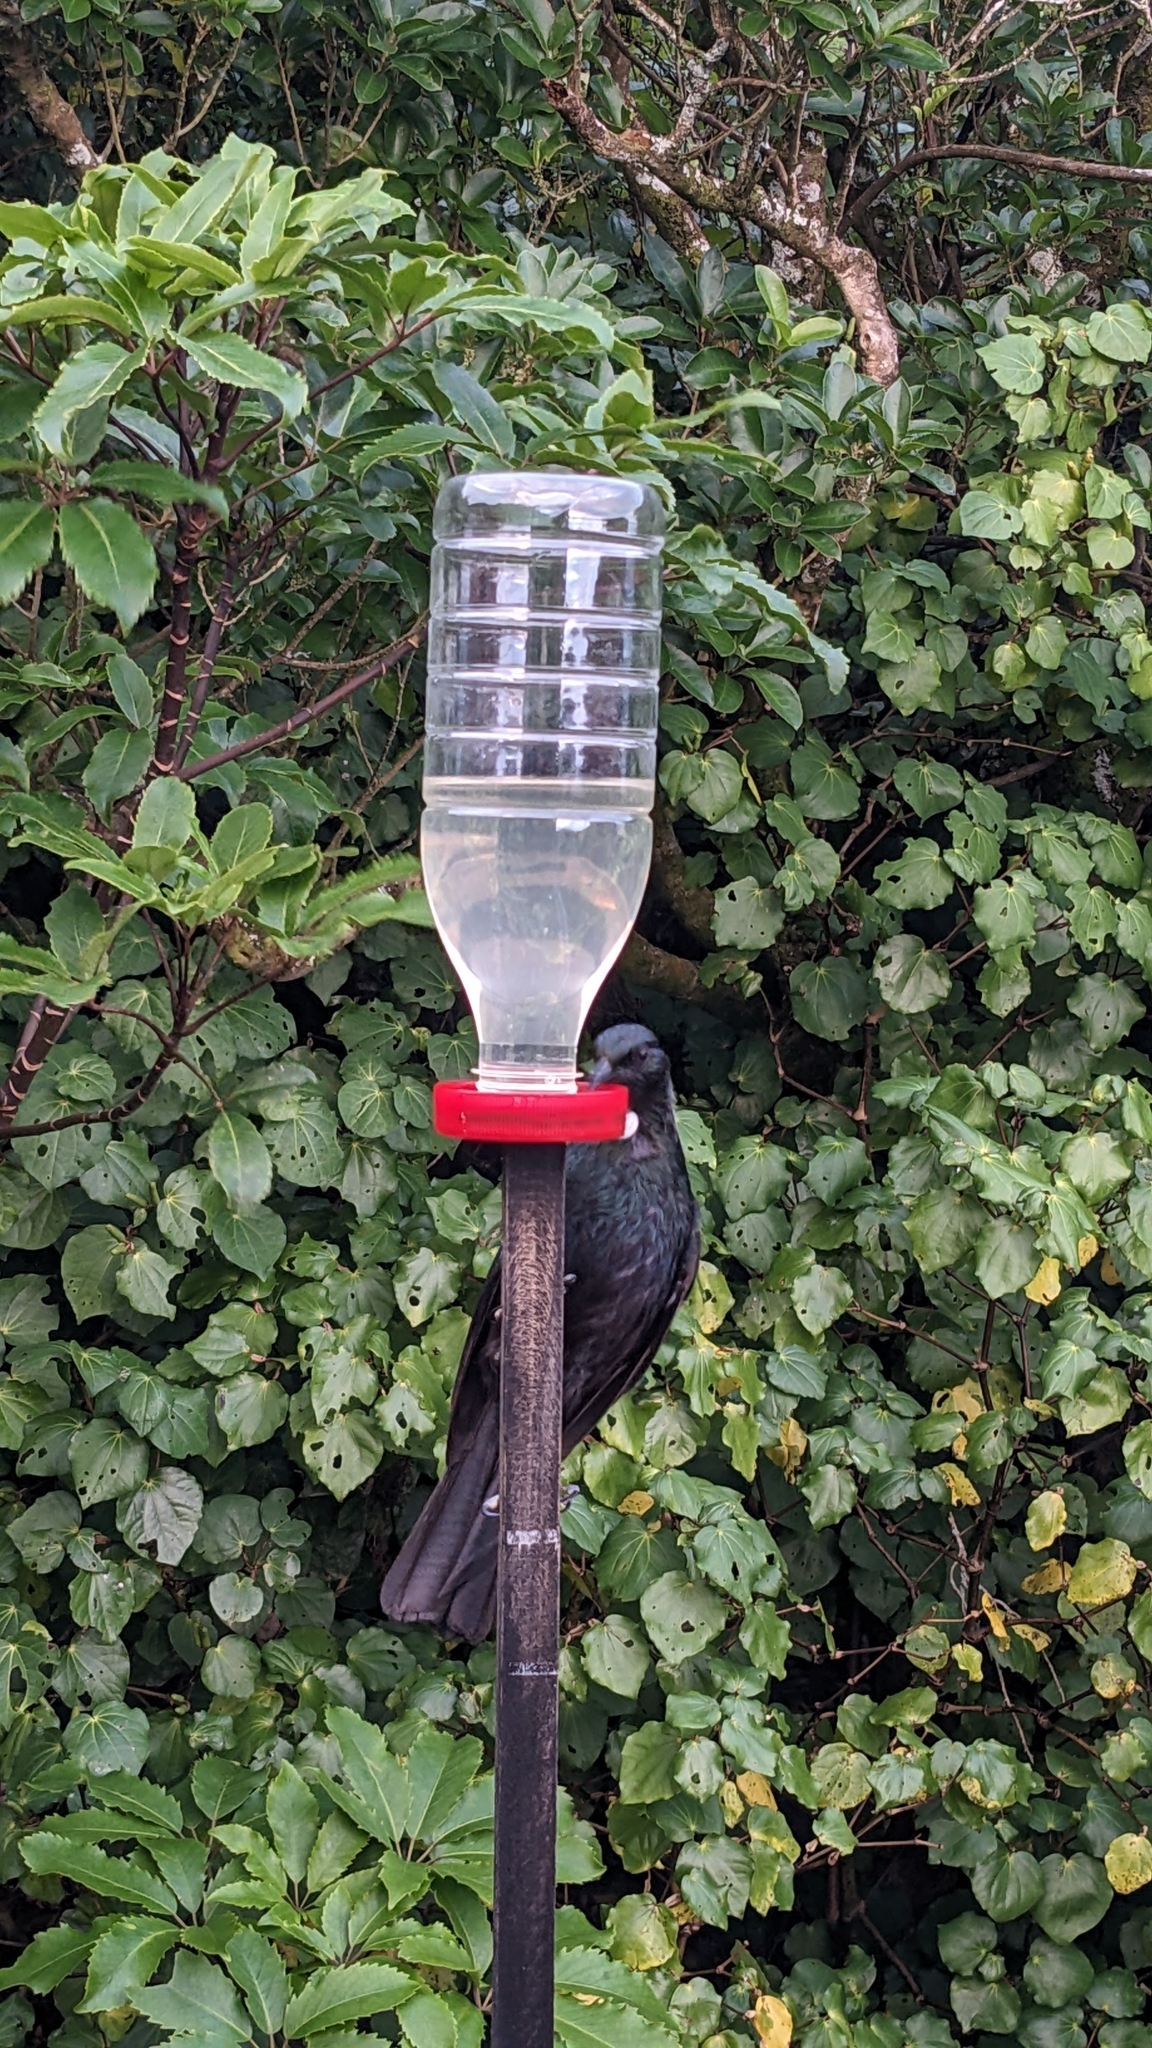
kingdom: Animalia
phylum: Chordata
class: Aves
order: Passeriformes
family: Meliphagidae
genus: Prosthemadera
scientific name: Prosthemadera novaeseelandiae
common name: Tui
